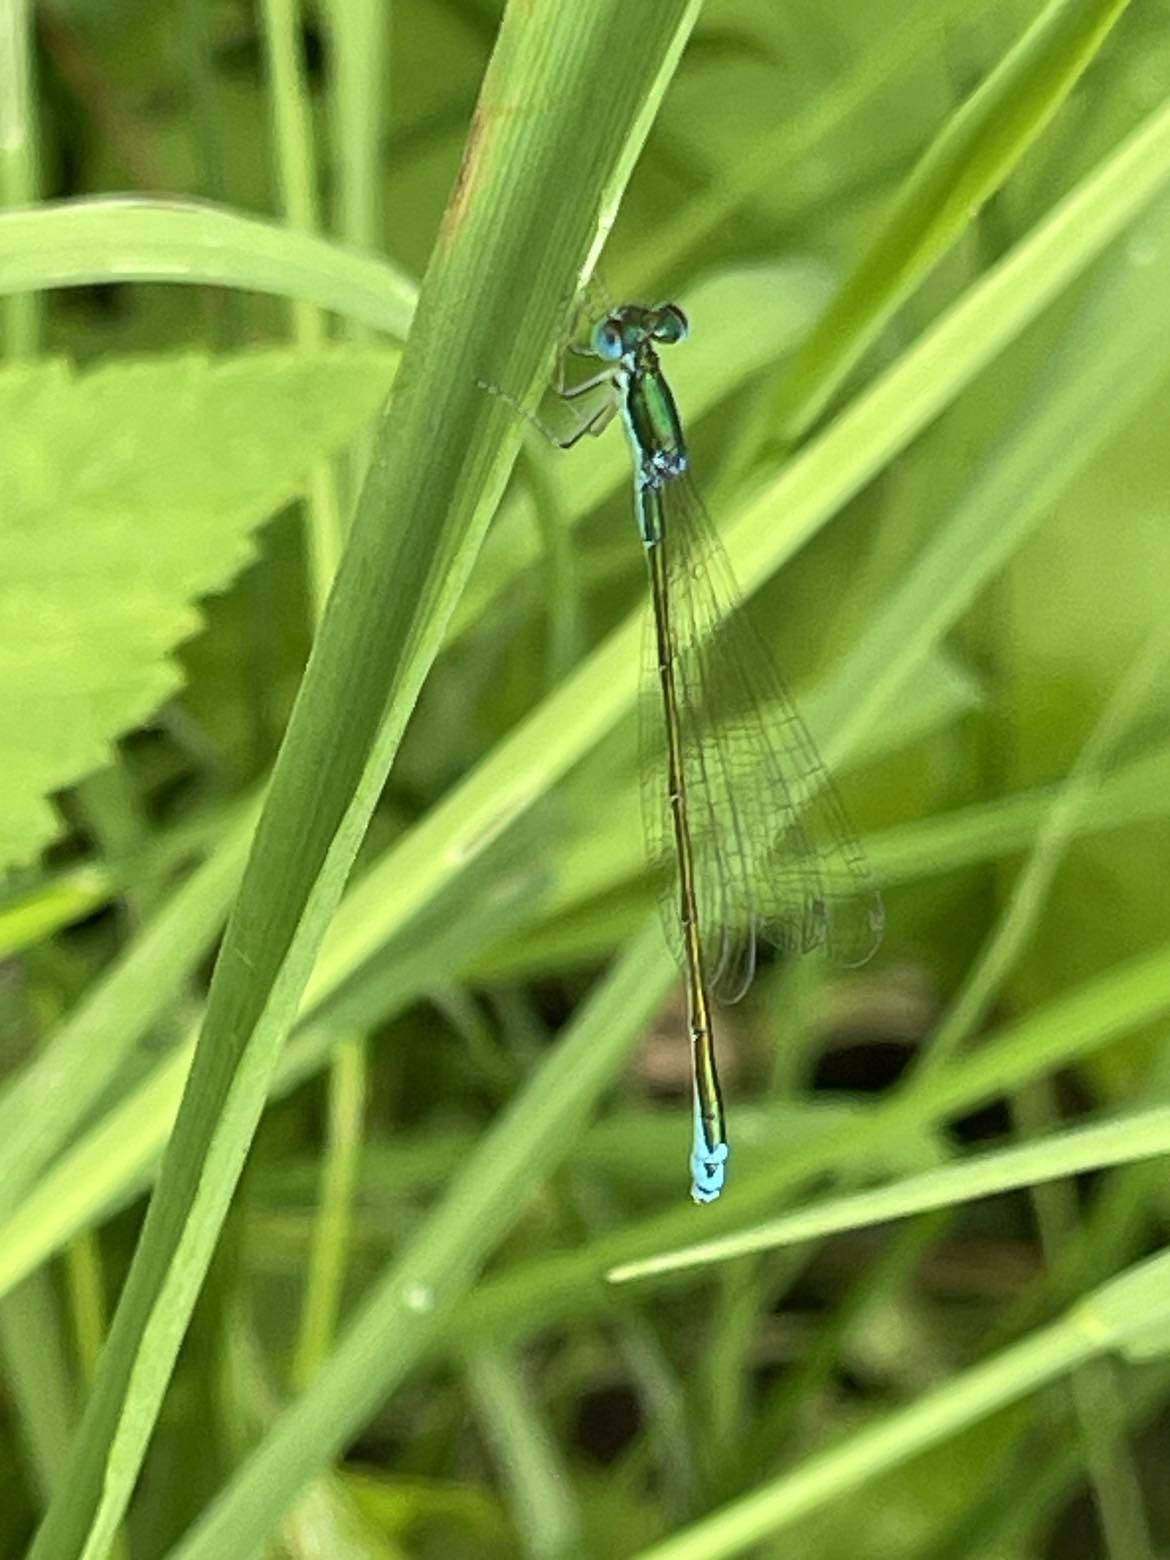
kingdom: Animalia
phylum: Arthropoda
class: Insecta
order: Odonata
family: Coenagrionidae
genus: Nehalennia
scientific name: Nehalennia irene
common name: Sedge sprite
